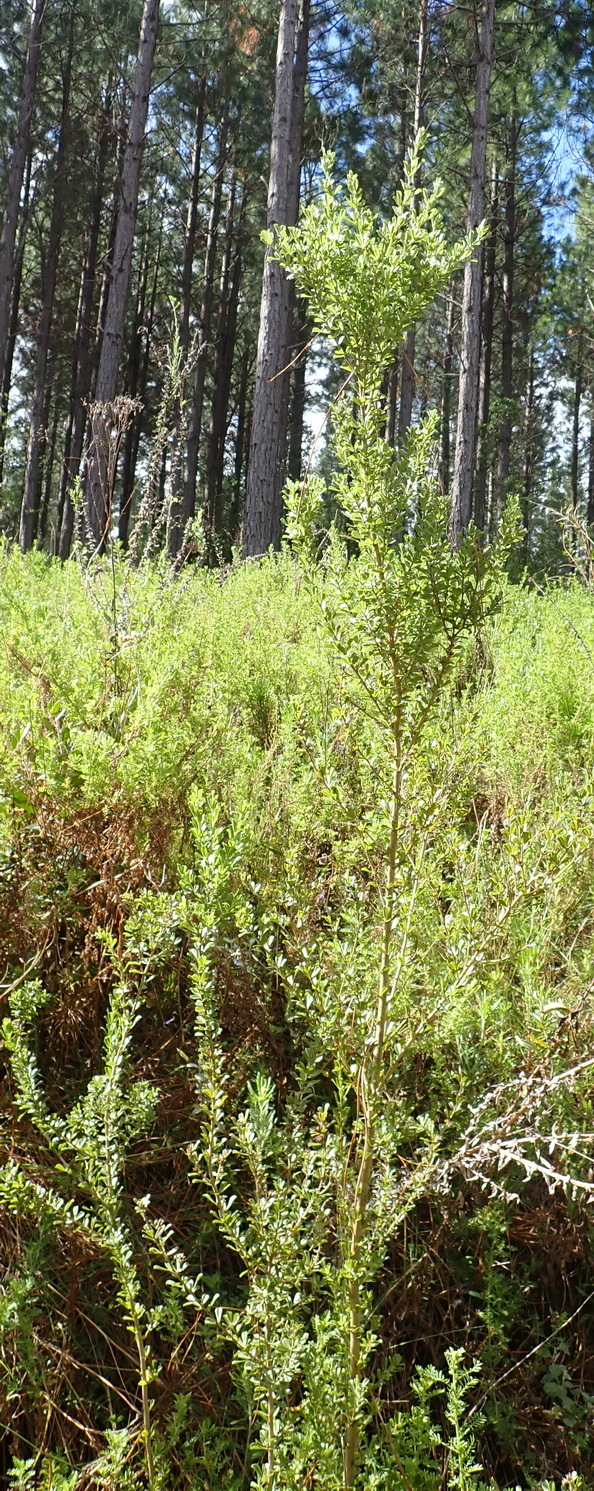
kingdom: Plantae
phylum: Tracheophyta
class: Magnoliopsida
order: Fabales
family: Fabaceae
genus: Psoralea
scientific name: Psoralea prodiens
